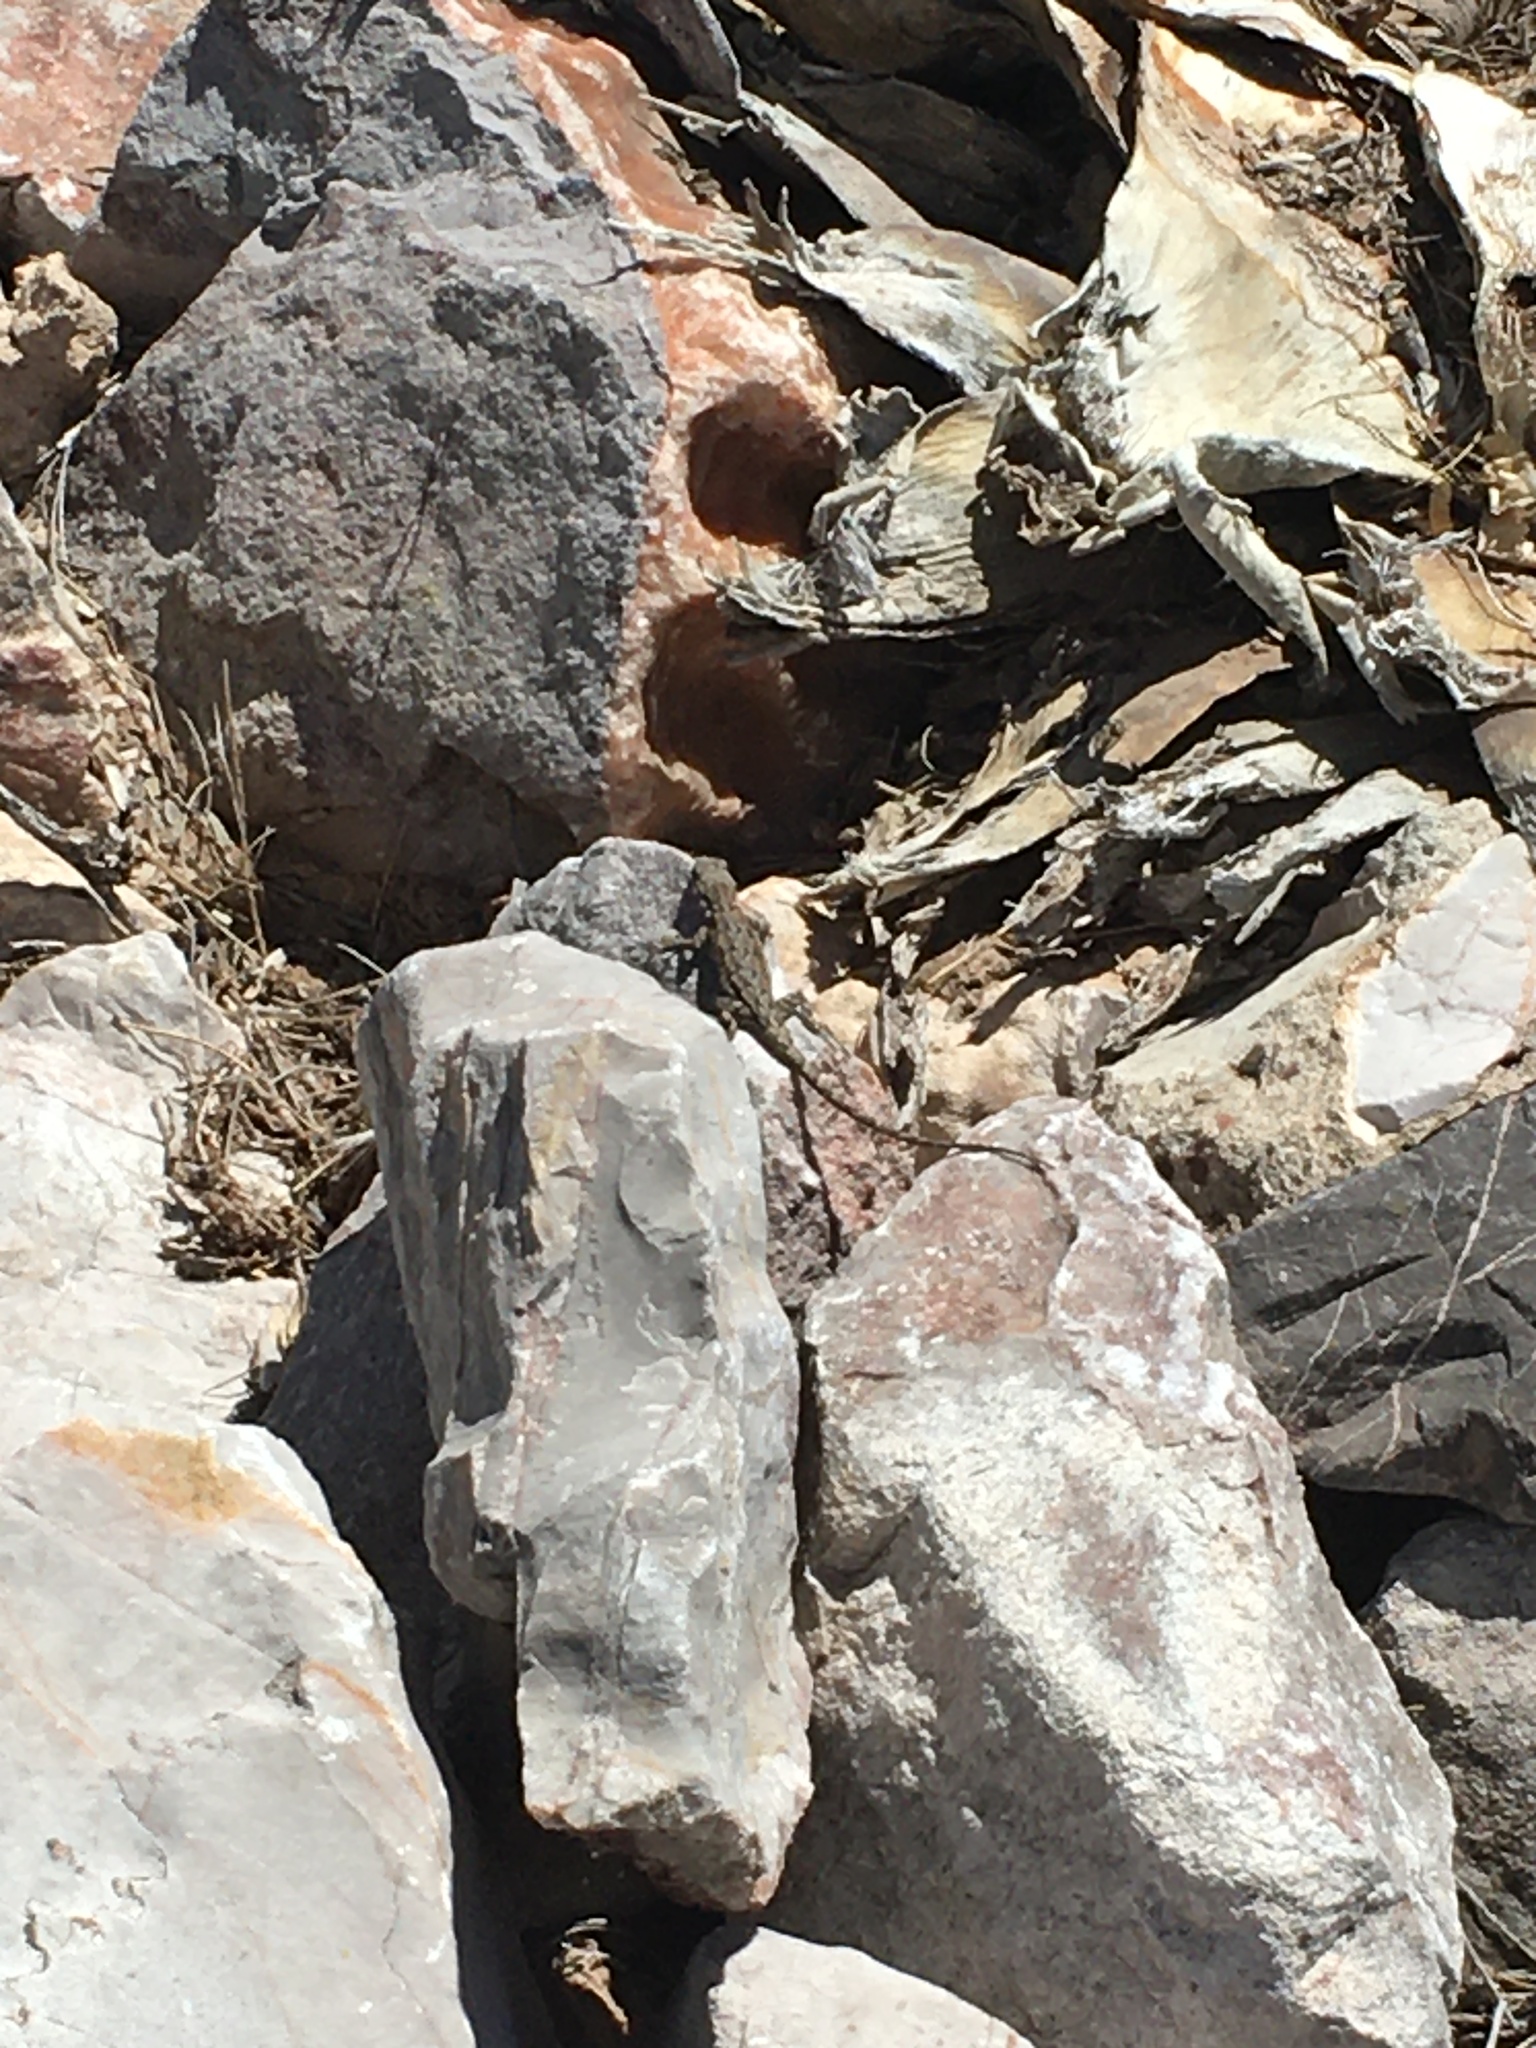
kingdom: Animalia
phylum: Chordata
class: Squamata
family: Phrynosomatidae
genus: Urosaurus
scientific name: Urosaurus ornatus
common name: Ornate tree lizard
